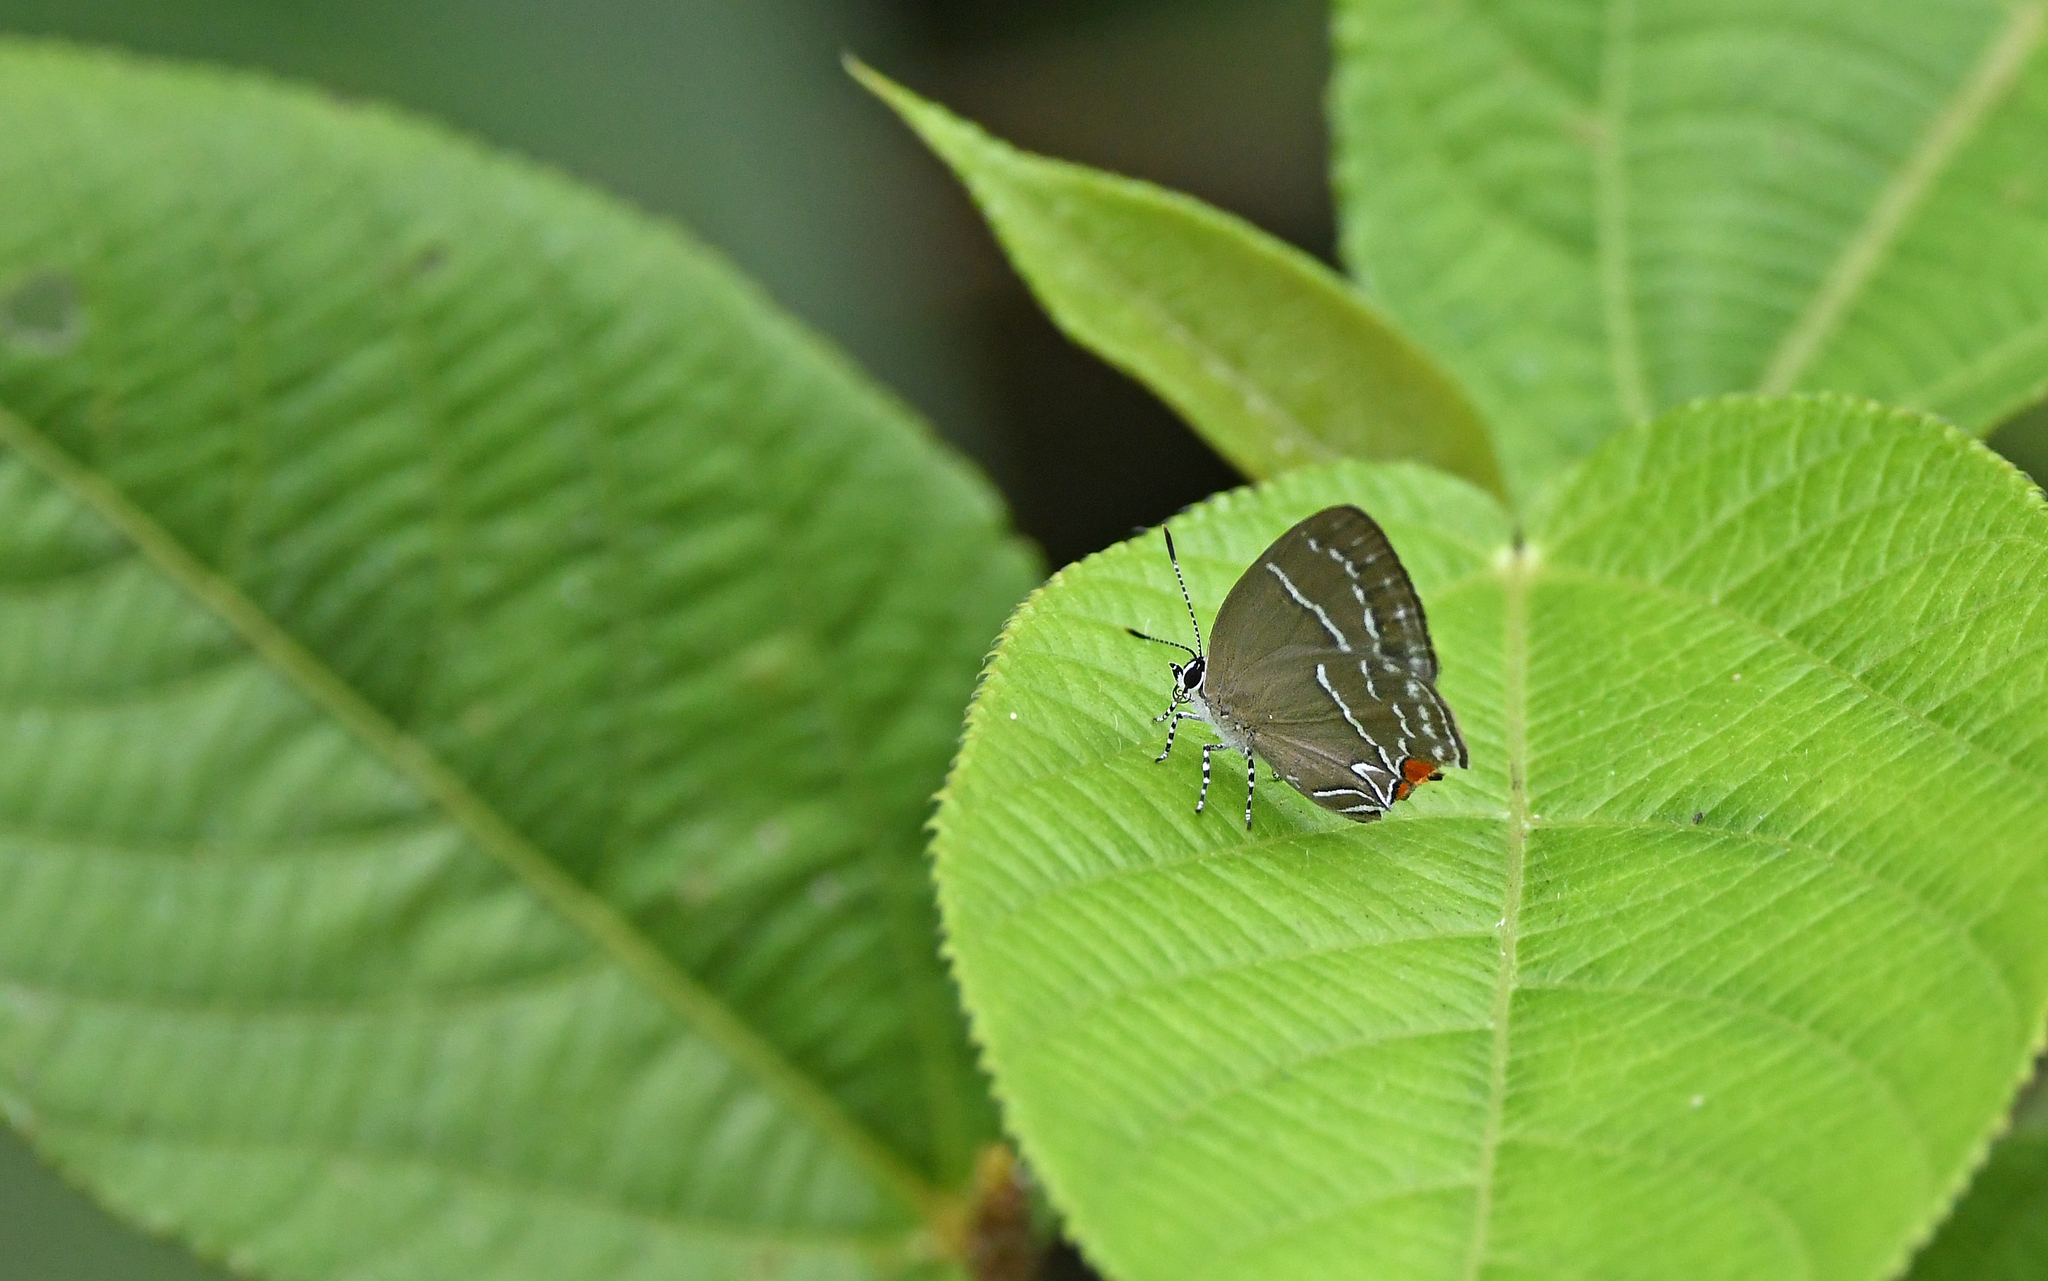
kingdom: Animalia
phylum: Arthropoda
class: Insecta
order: Lepidoptera
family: Lycaenidae
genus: Thestius
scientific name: Thestius
